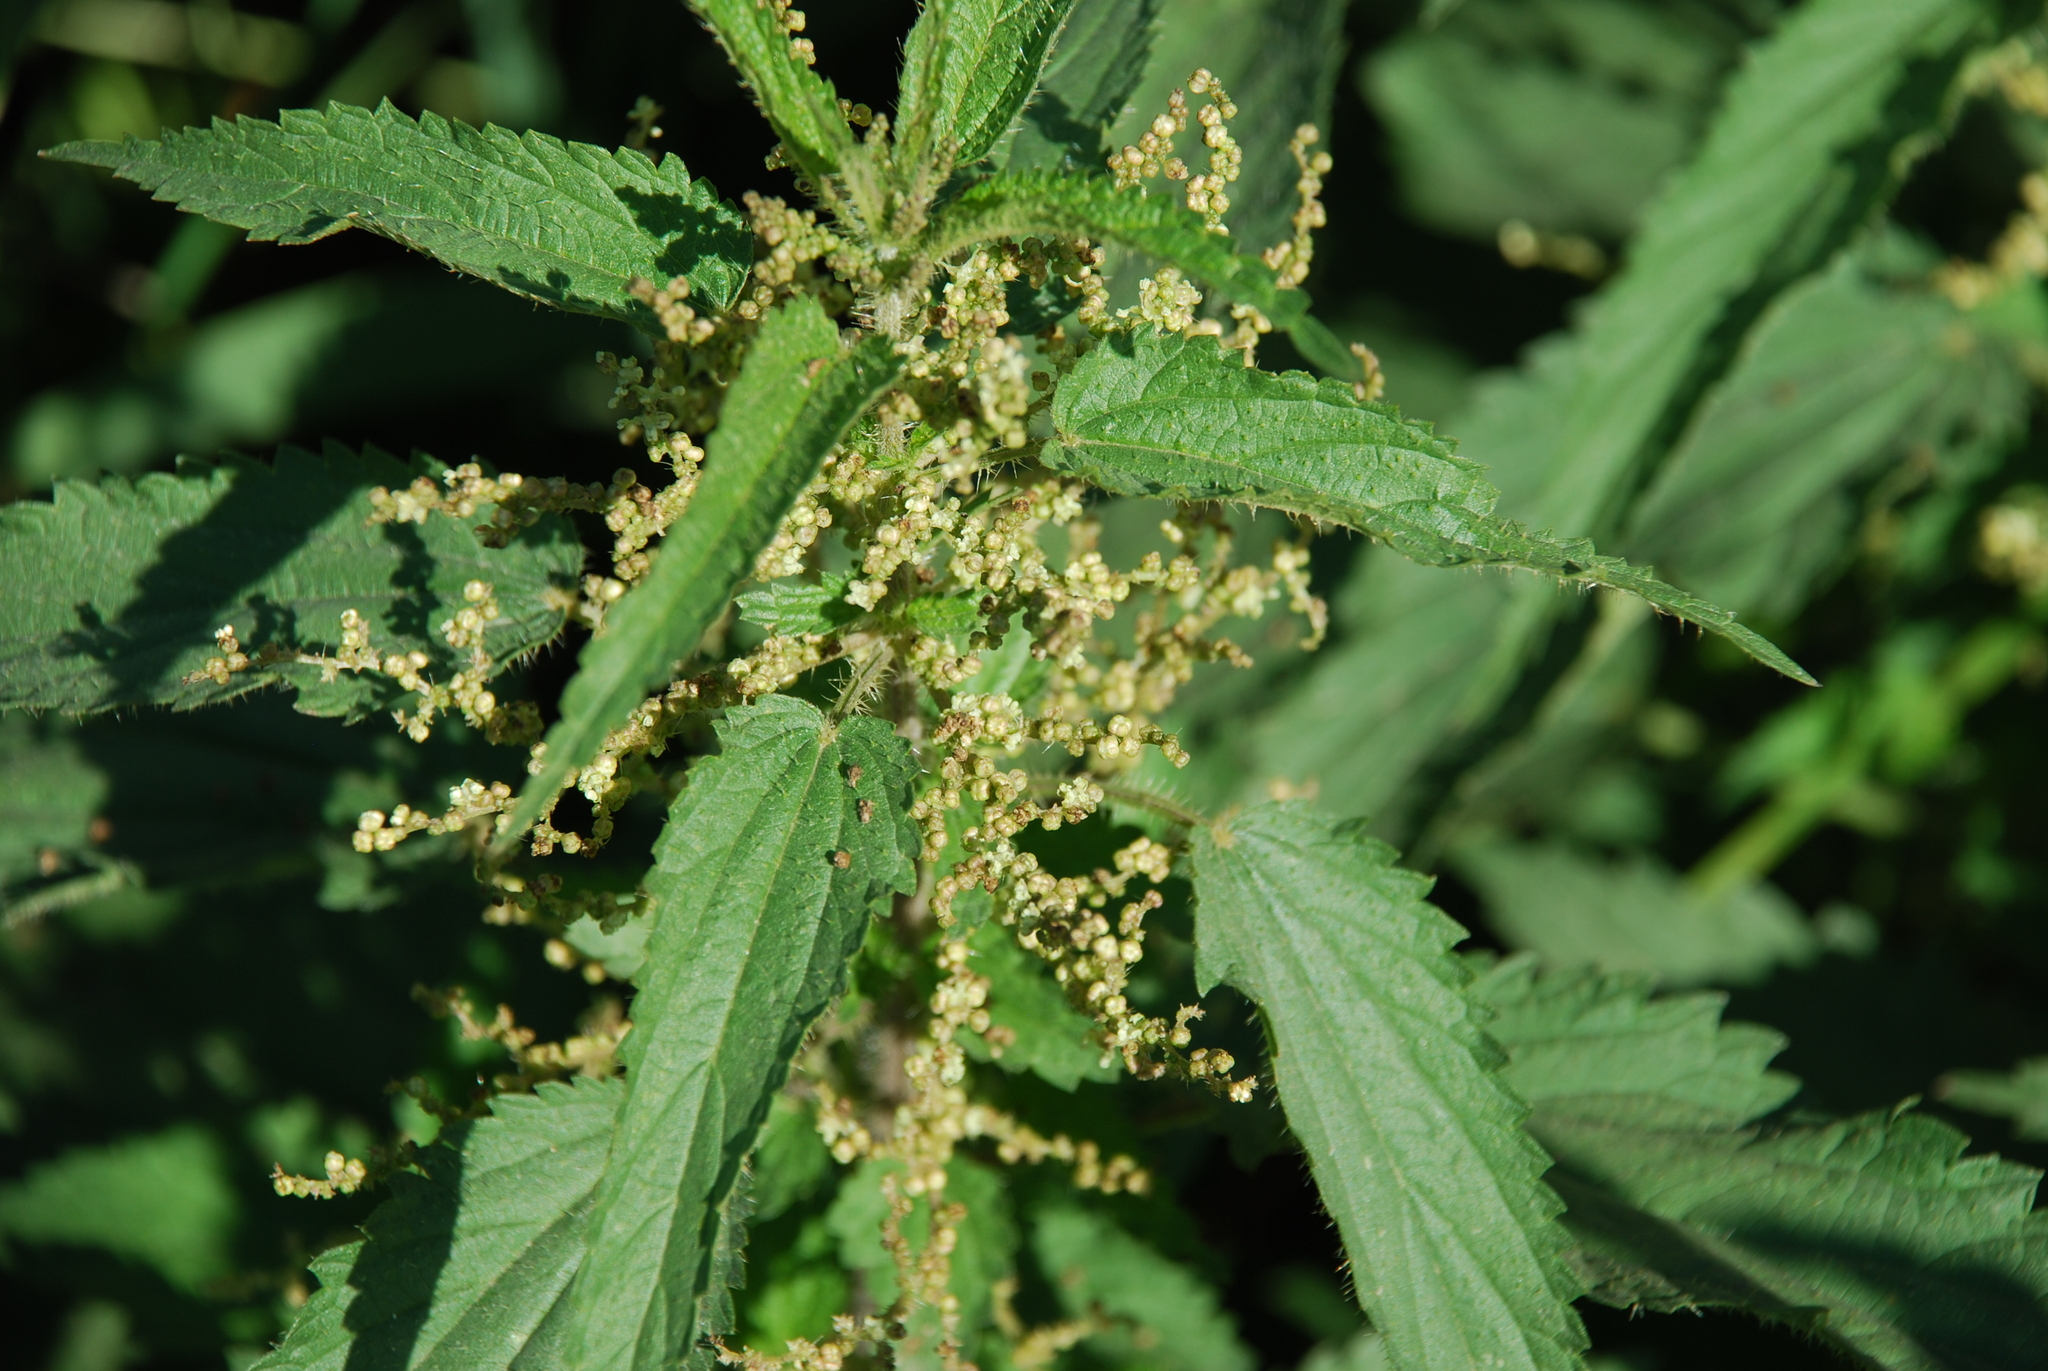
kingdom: Plantae
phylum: Tracheophyta
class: Magnoliopsida
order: Rosales
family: Urticaceae
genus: Urtica
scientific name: Urtica dioica
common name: Common nettle
